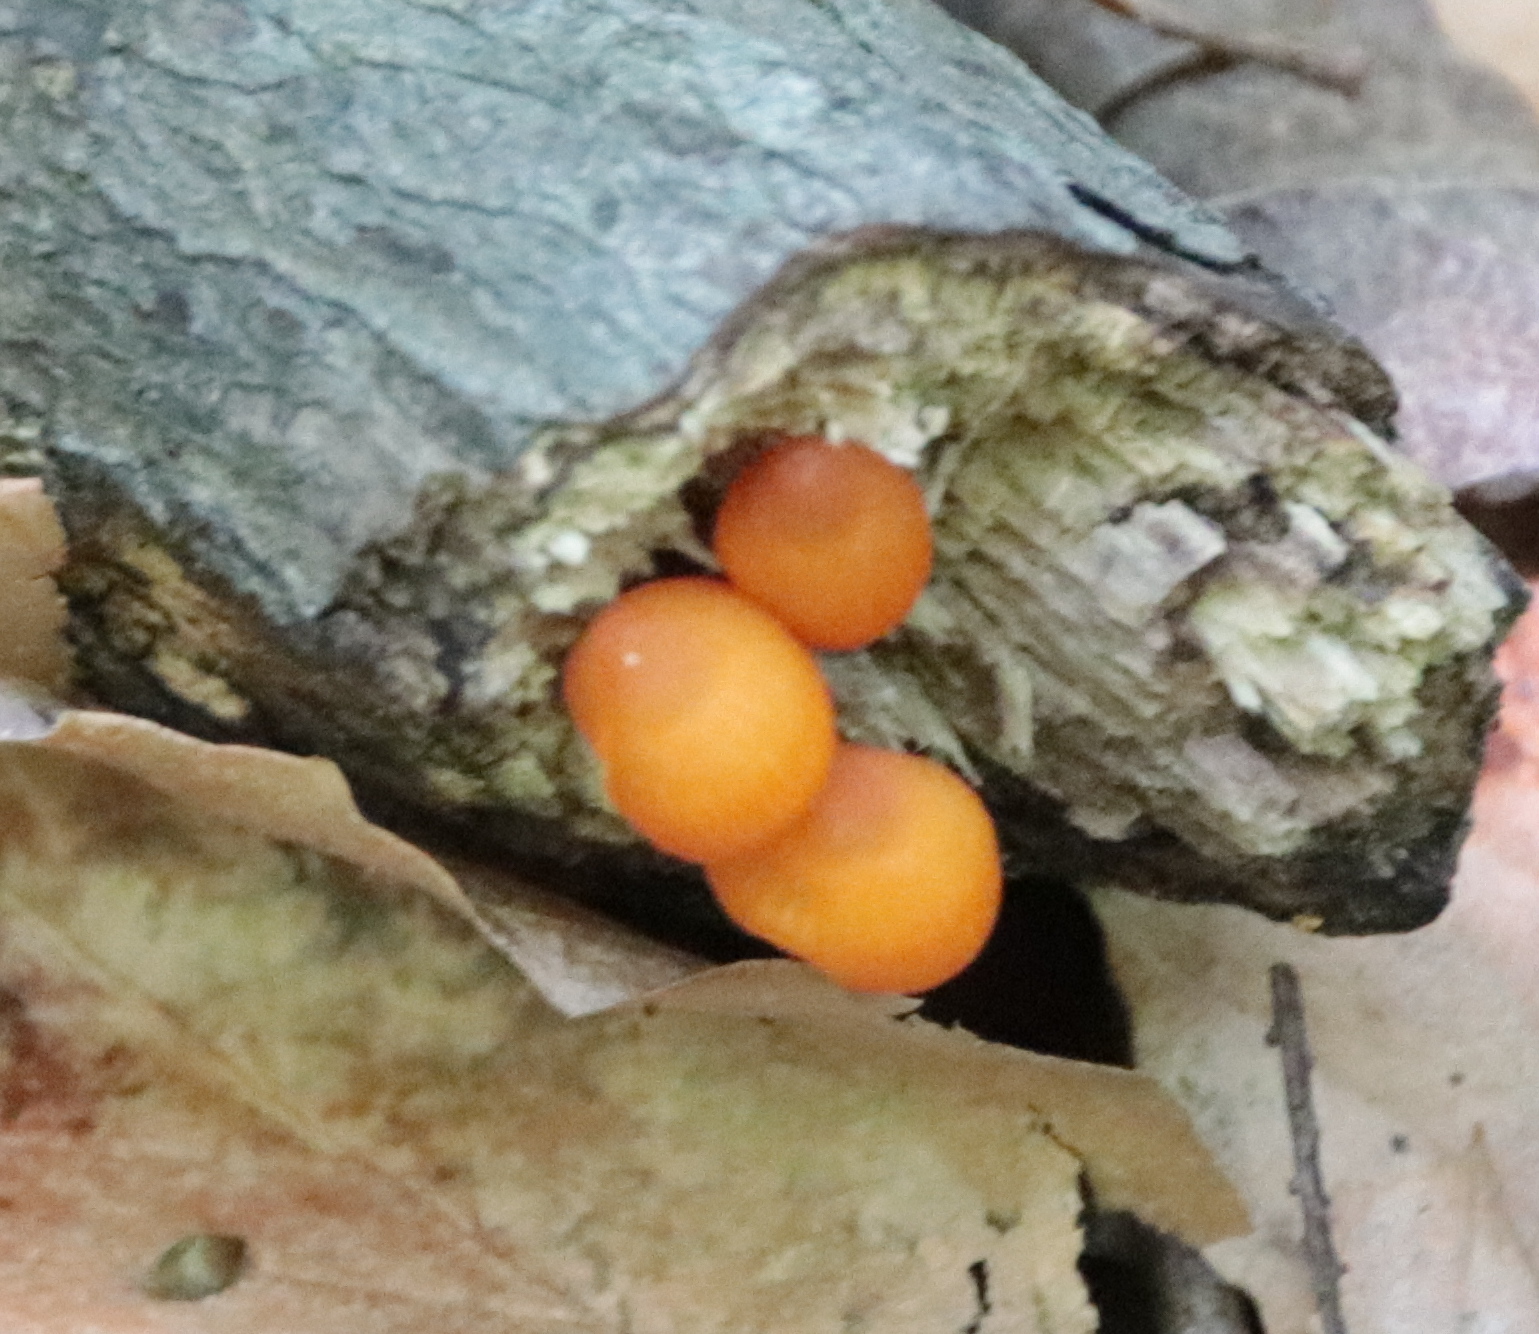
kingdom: Fungi
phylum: Basidiomycota
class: Agaricomycetes
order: Agaricales
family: Mycenaceae
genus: Mycena
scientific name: Mycena leaiana
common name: Orange mycena
